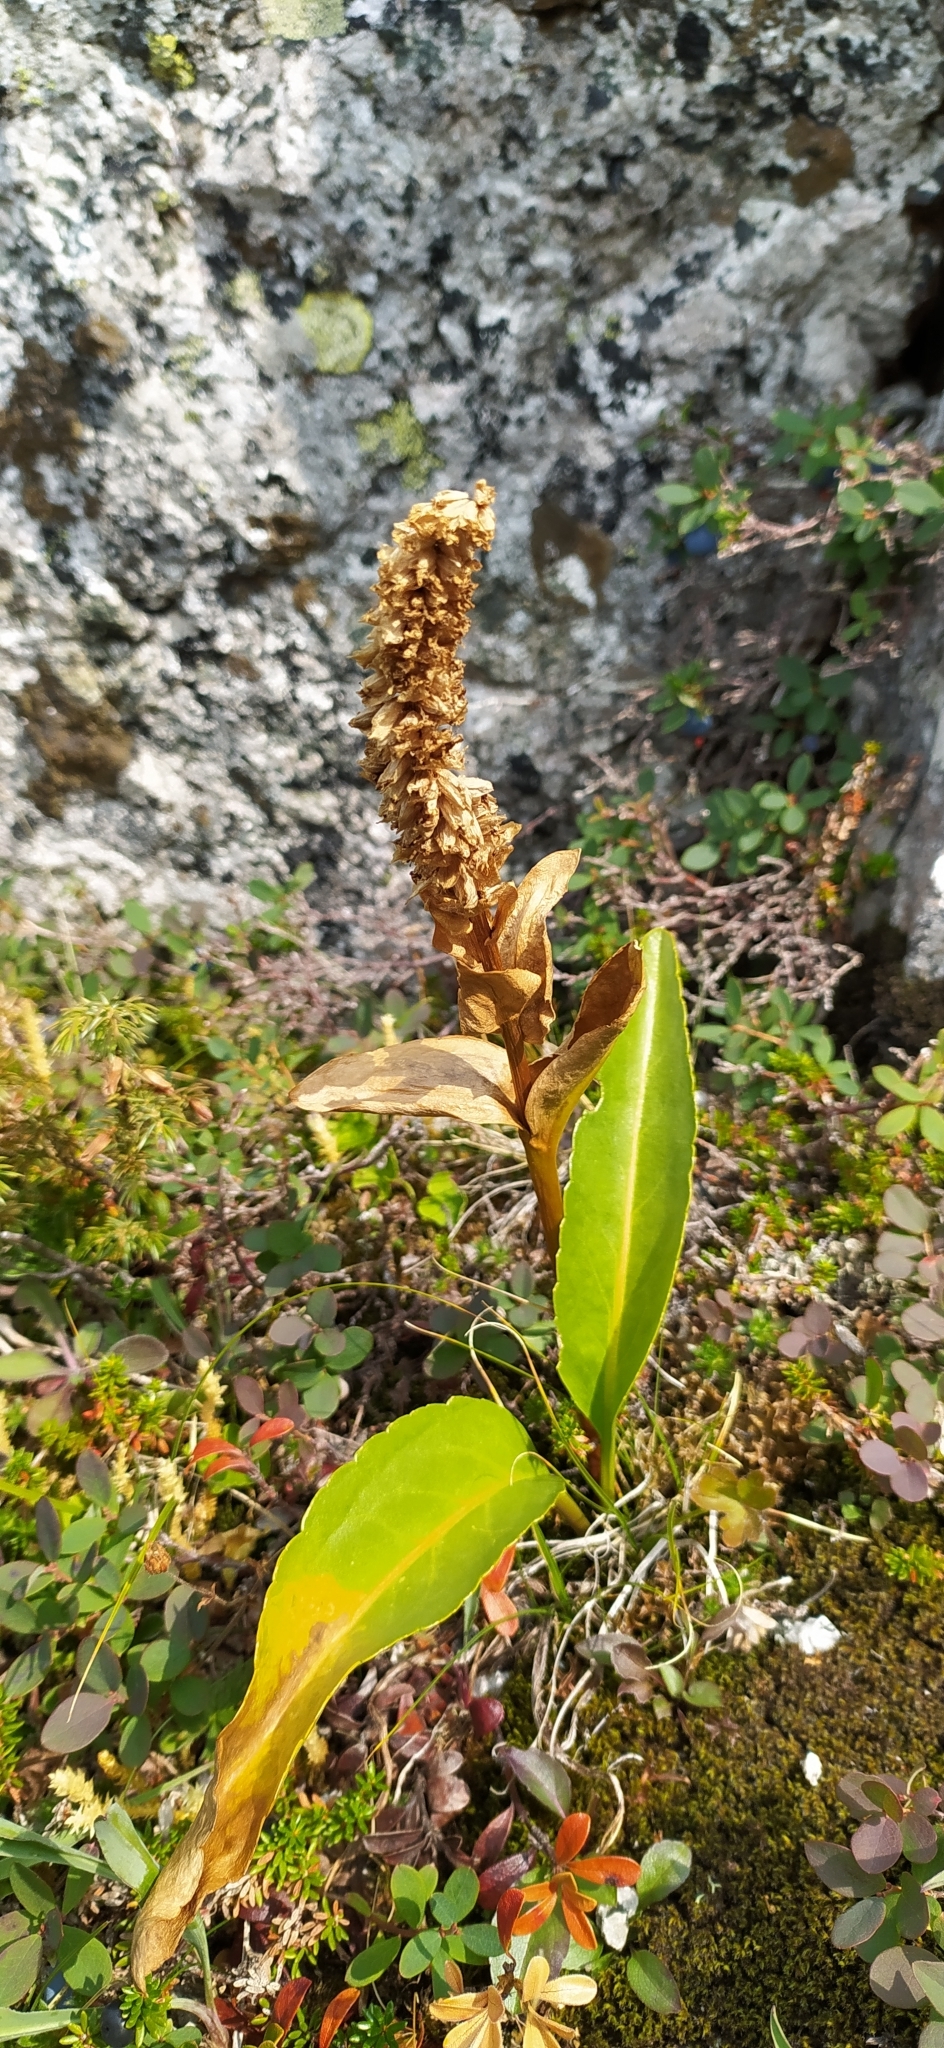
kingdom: Plantae
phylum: Tracheophyta
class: Magnoliopsida
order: Lamiales
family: Plantaginaceae
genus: Lagotis
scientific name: Lagotis uralensis
